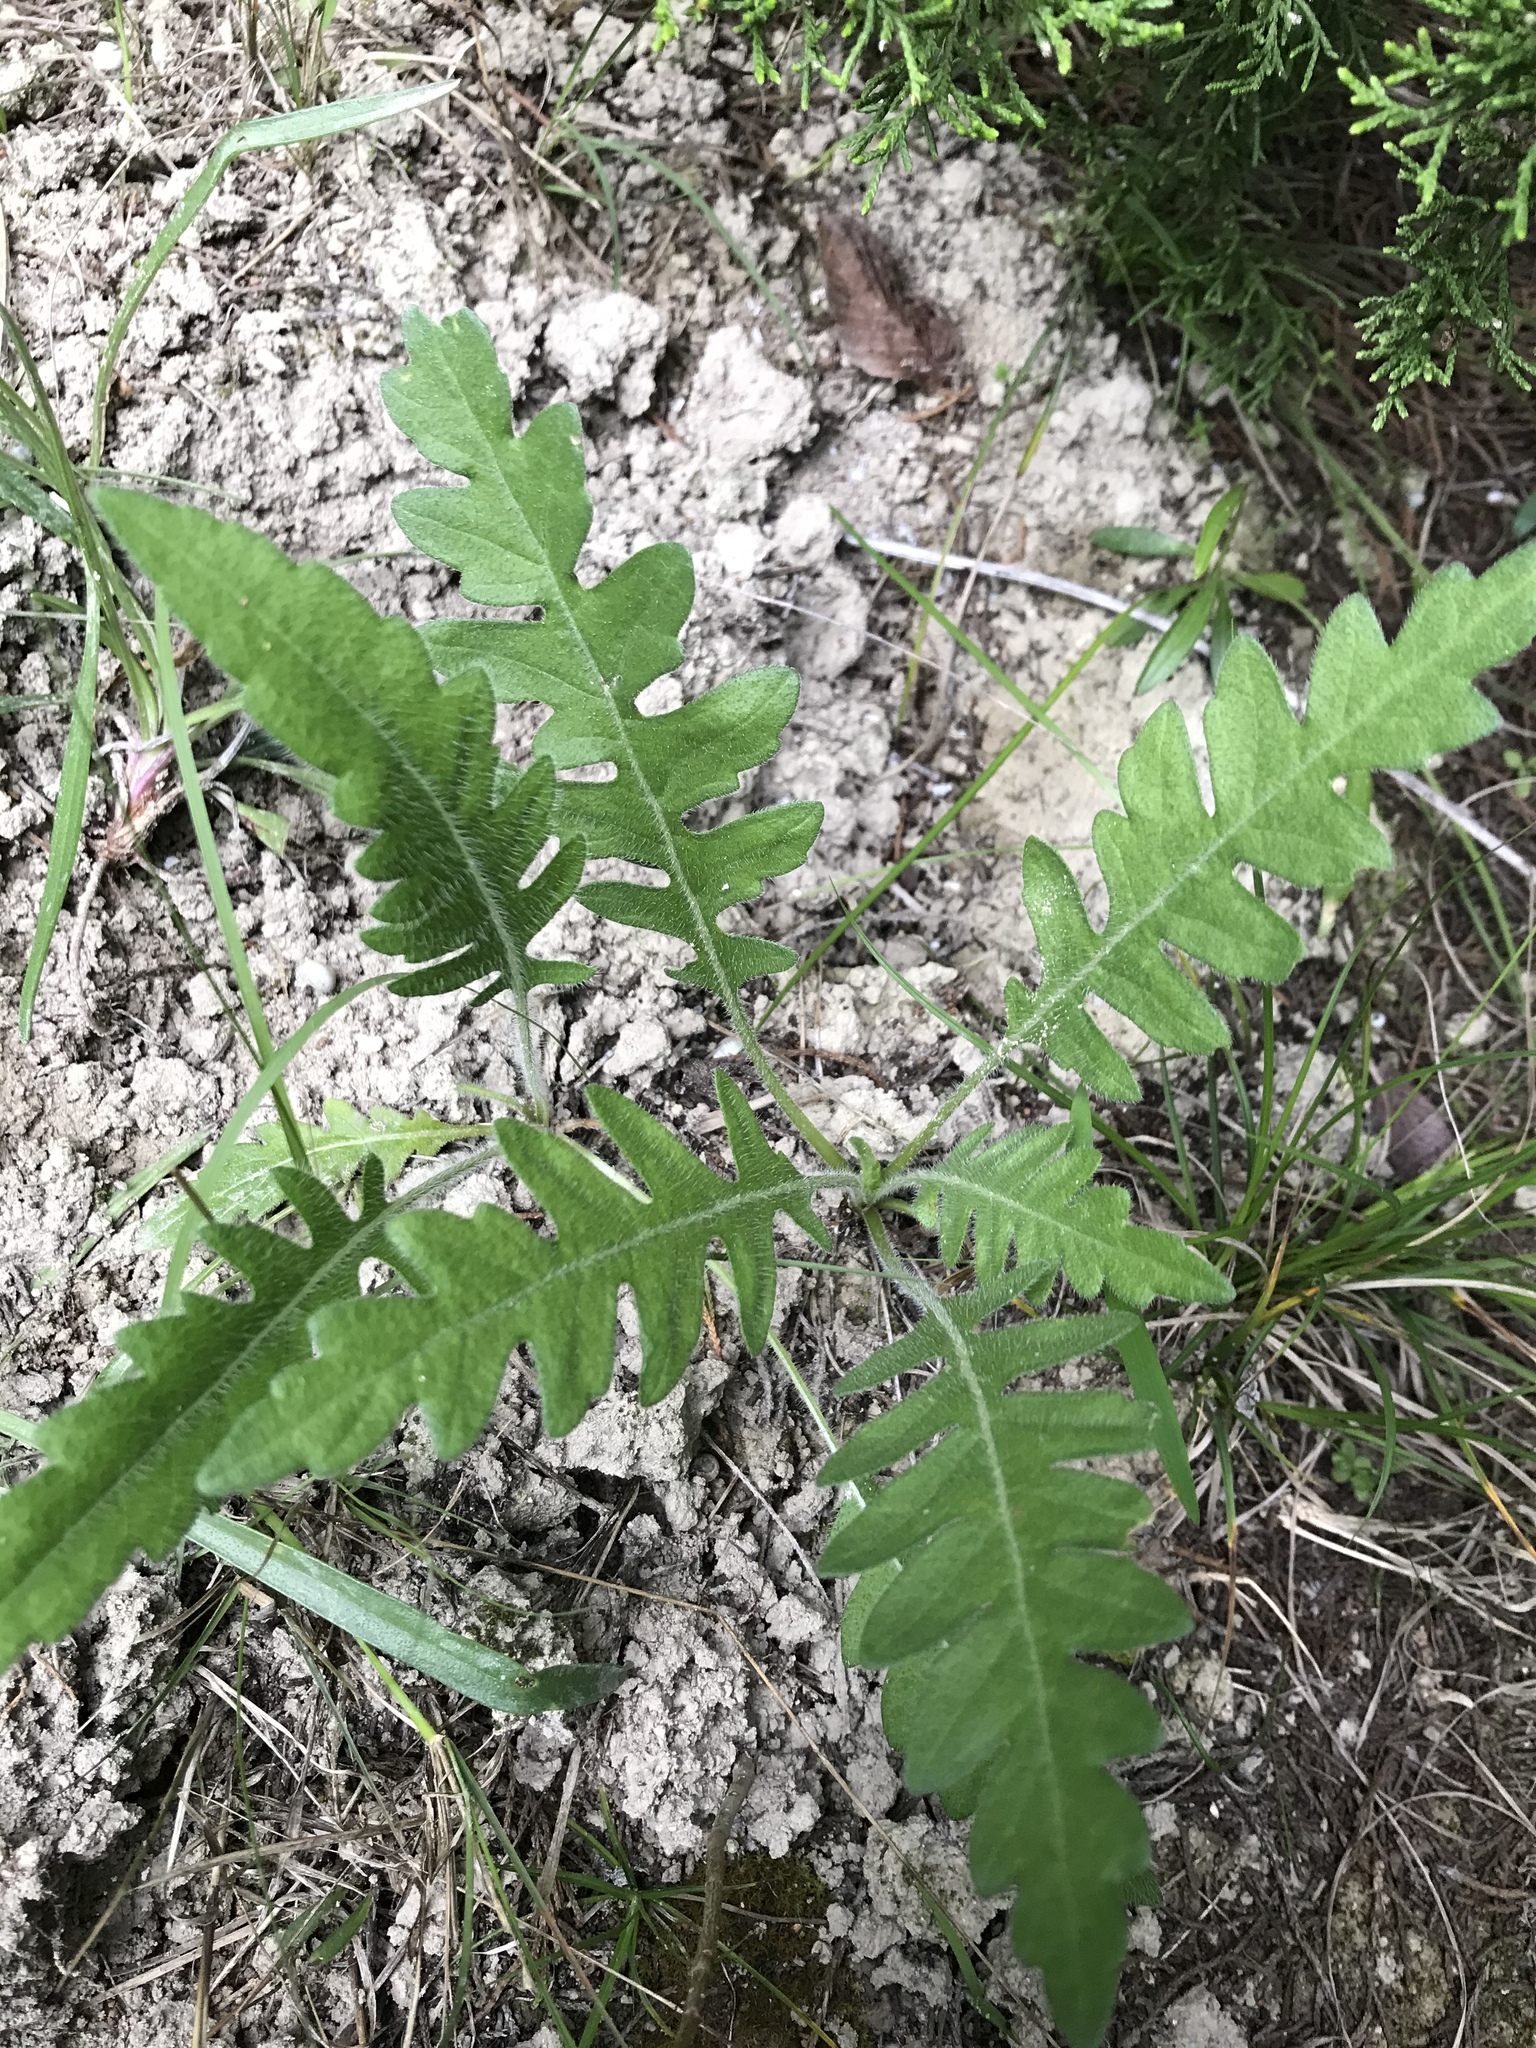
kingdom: Plantae
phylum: Tracheophyta
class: Magnoliopsida
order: Asterales
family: Asteraceae
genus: Engelmannia
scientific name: Engelmannia peristenia
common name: Engelmann's daisy
